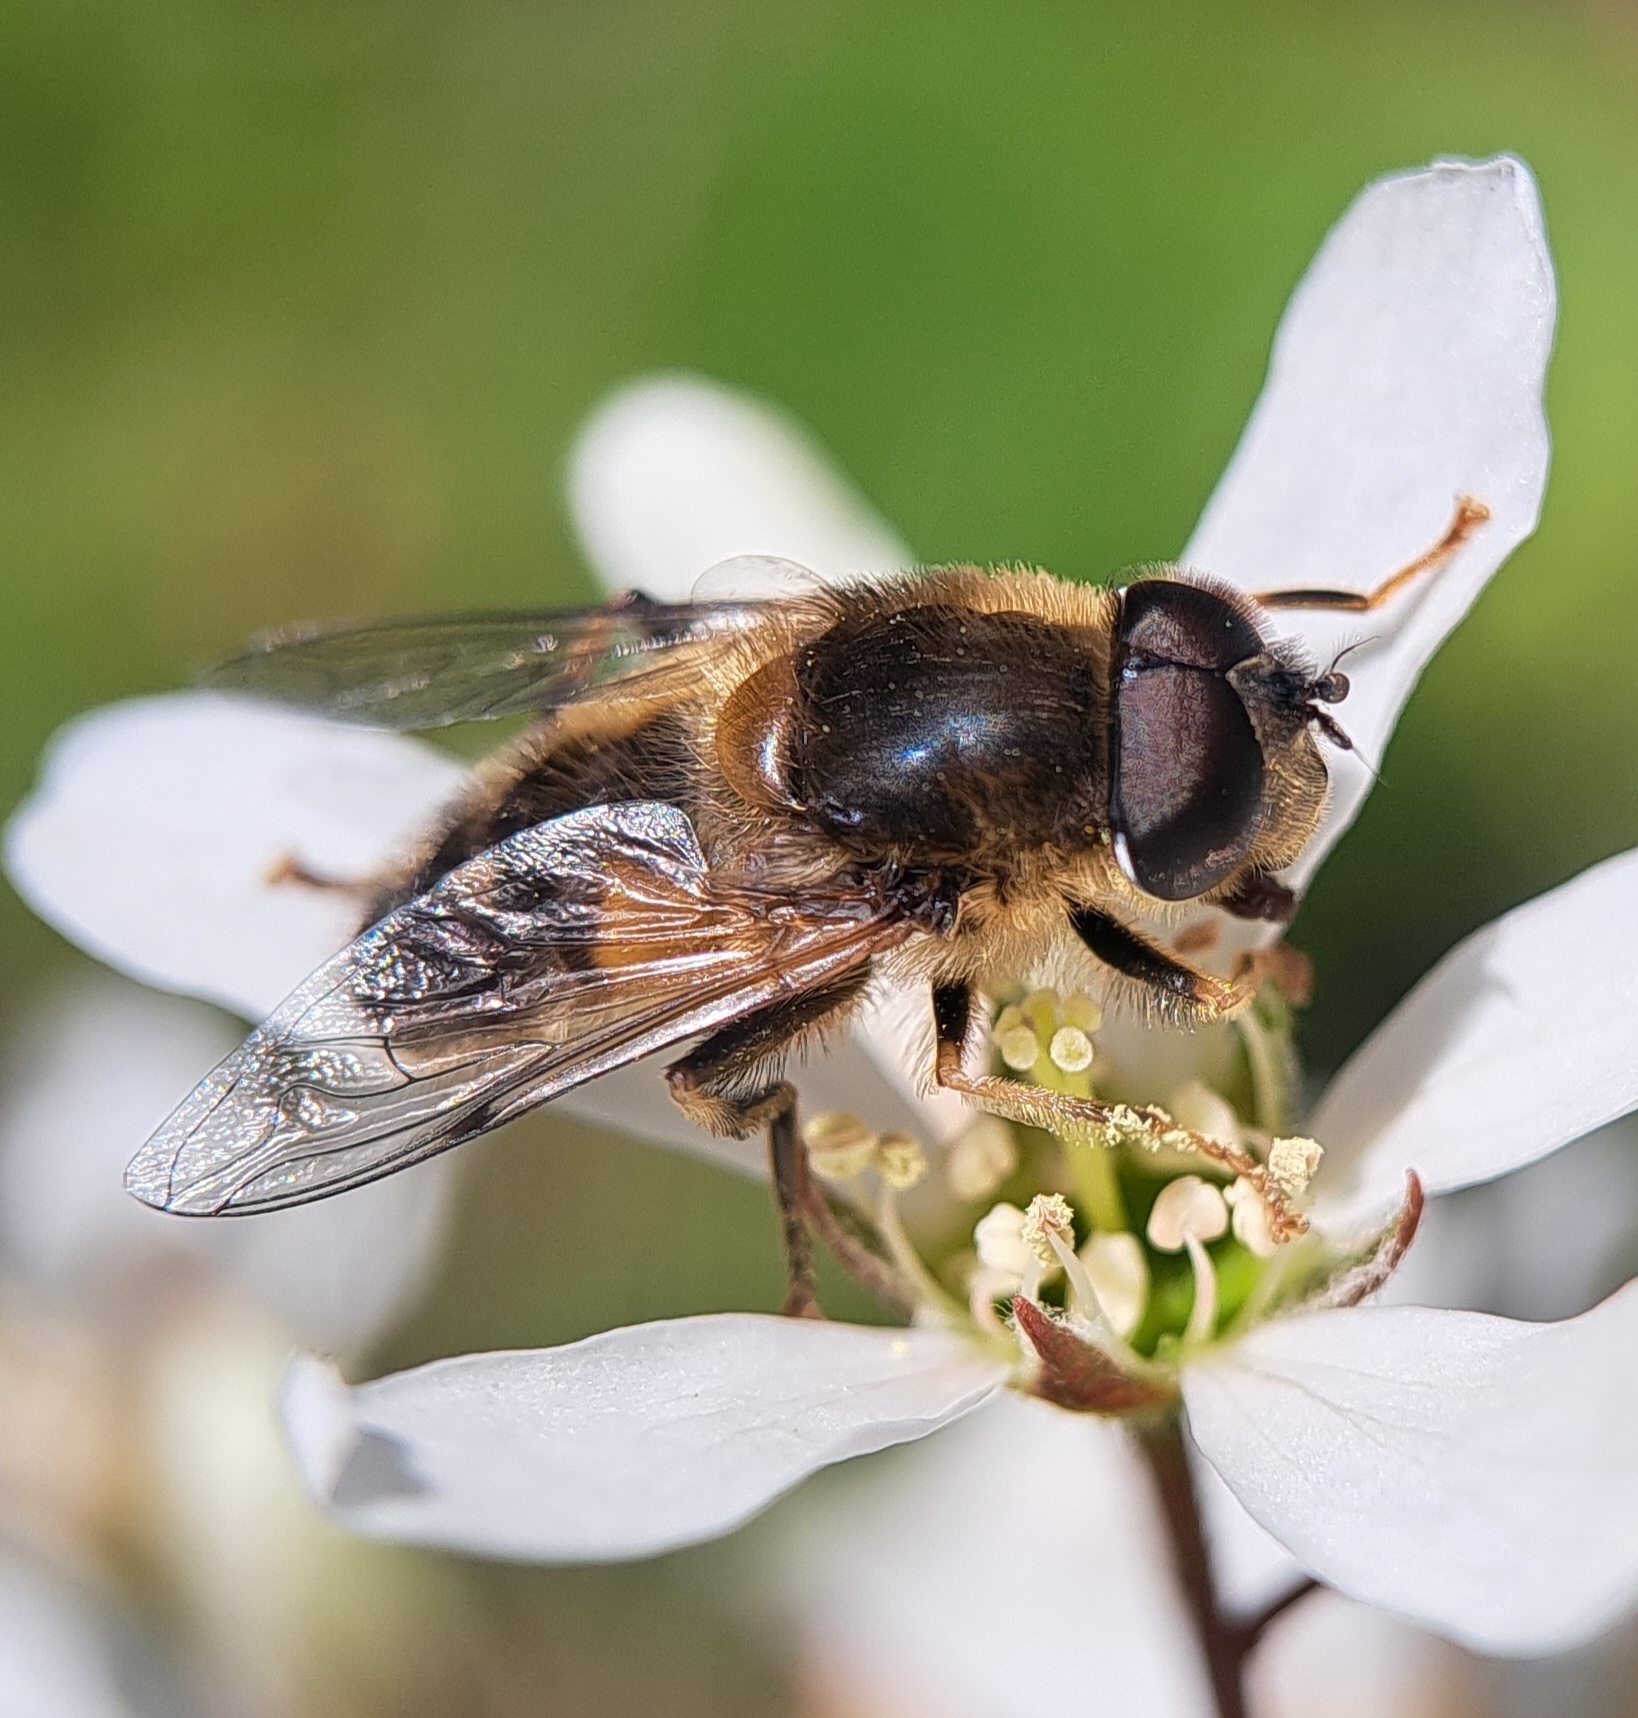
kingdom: Animalia
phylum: Arthropoda
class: Insecta
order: Diptera
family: Syrphidae
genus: Eristalis
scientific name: Eristalis pertinax
